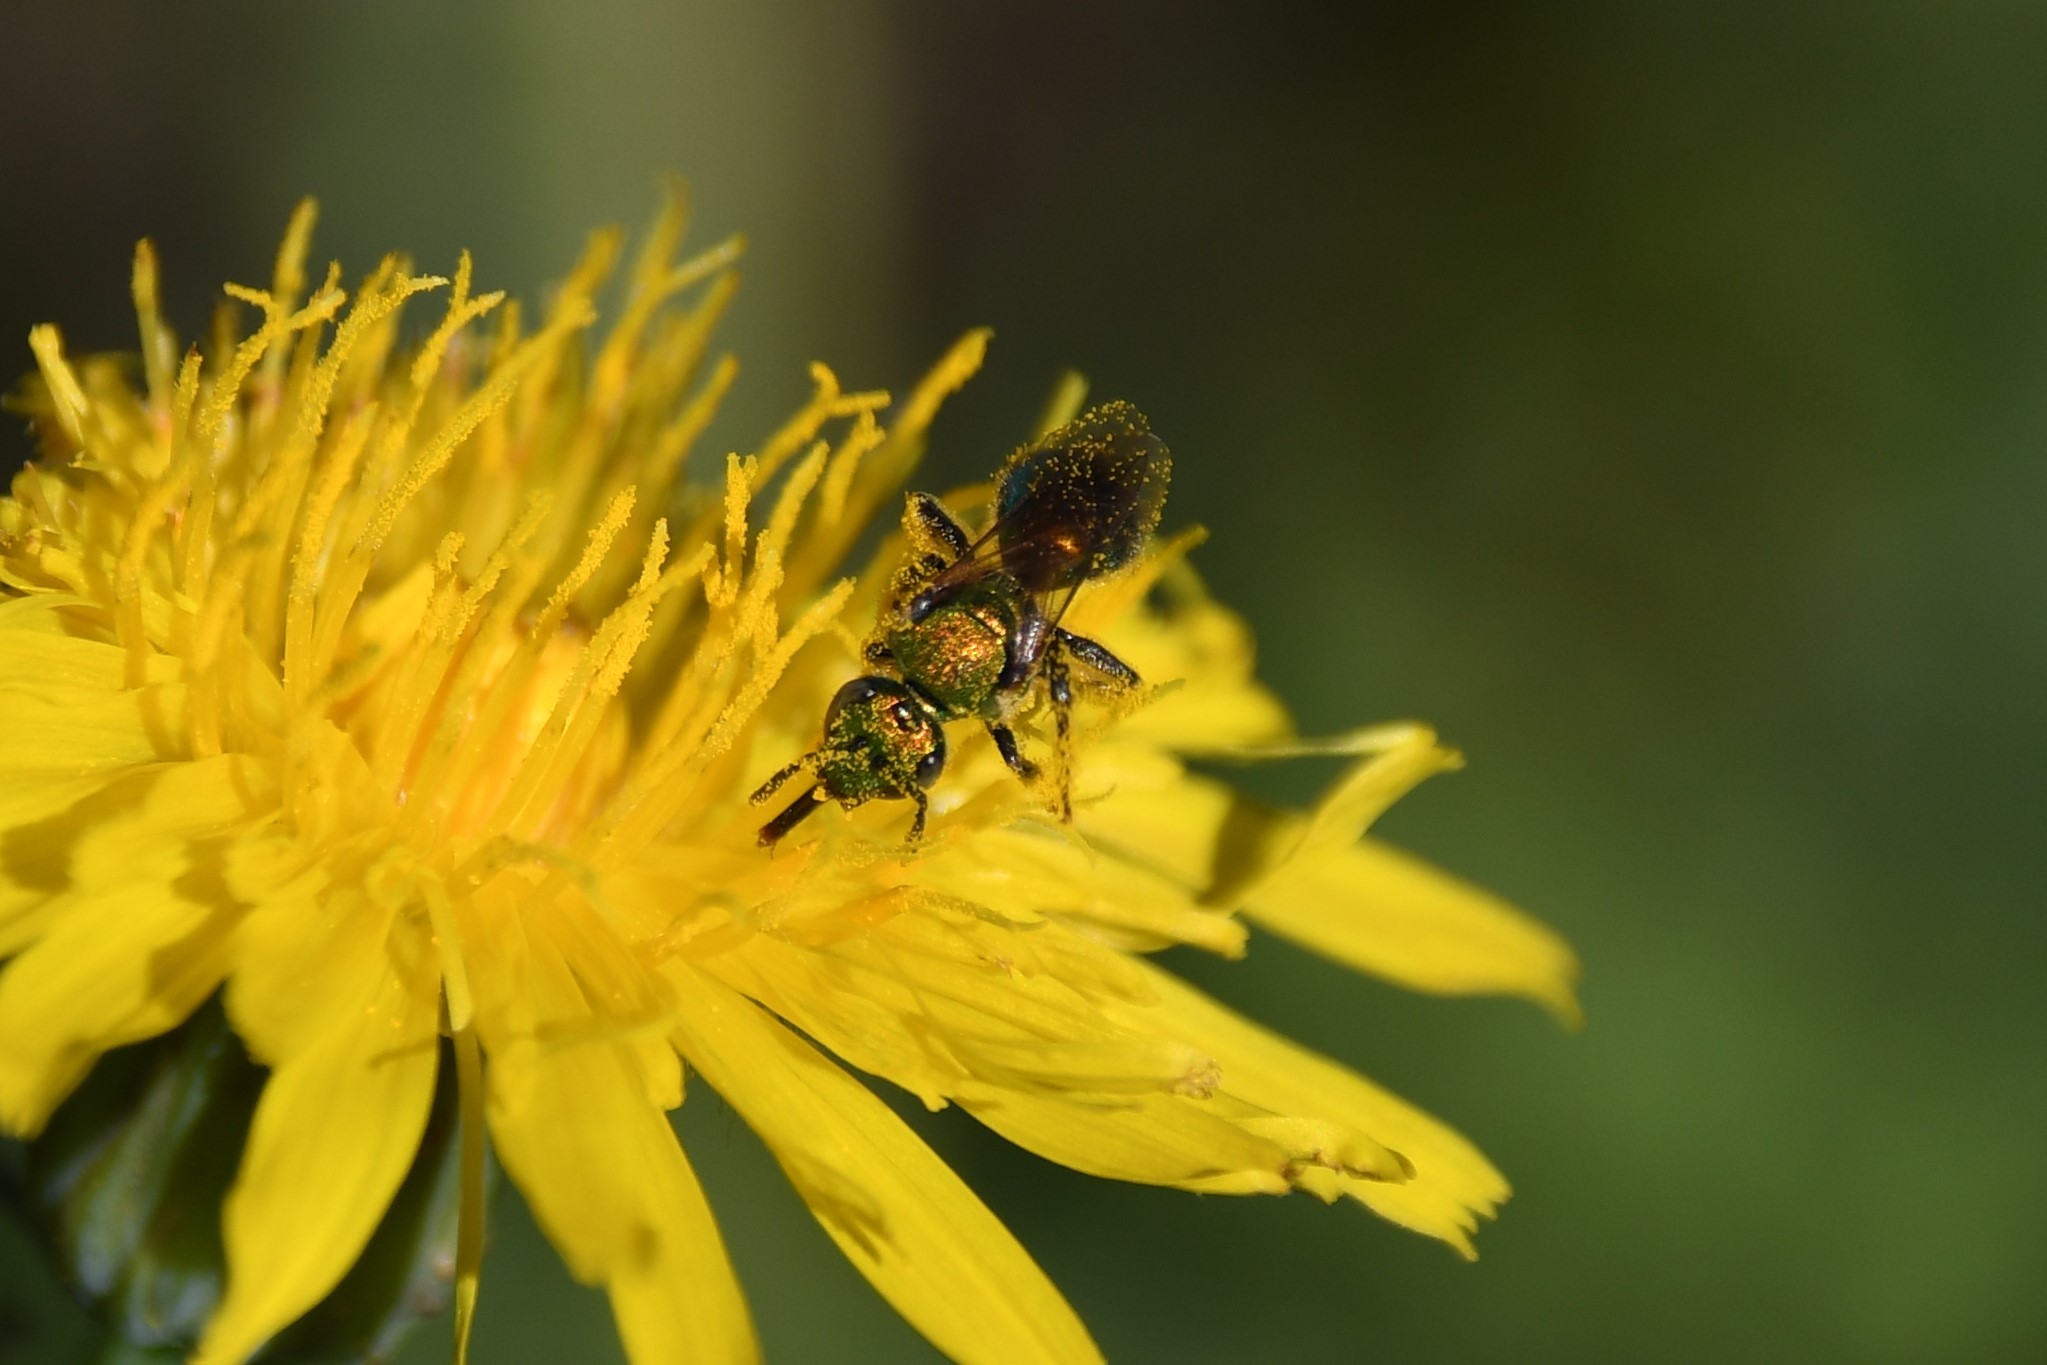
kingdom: Animalia
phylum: Arthropoda
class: Insecta
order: Hymenoptera
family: Halictidae
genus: Augochlorella
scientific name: Augochlorella aurata
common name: Golden sweat bee
